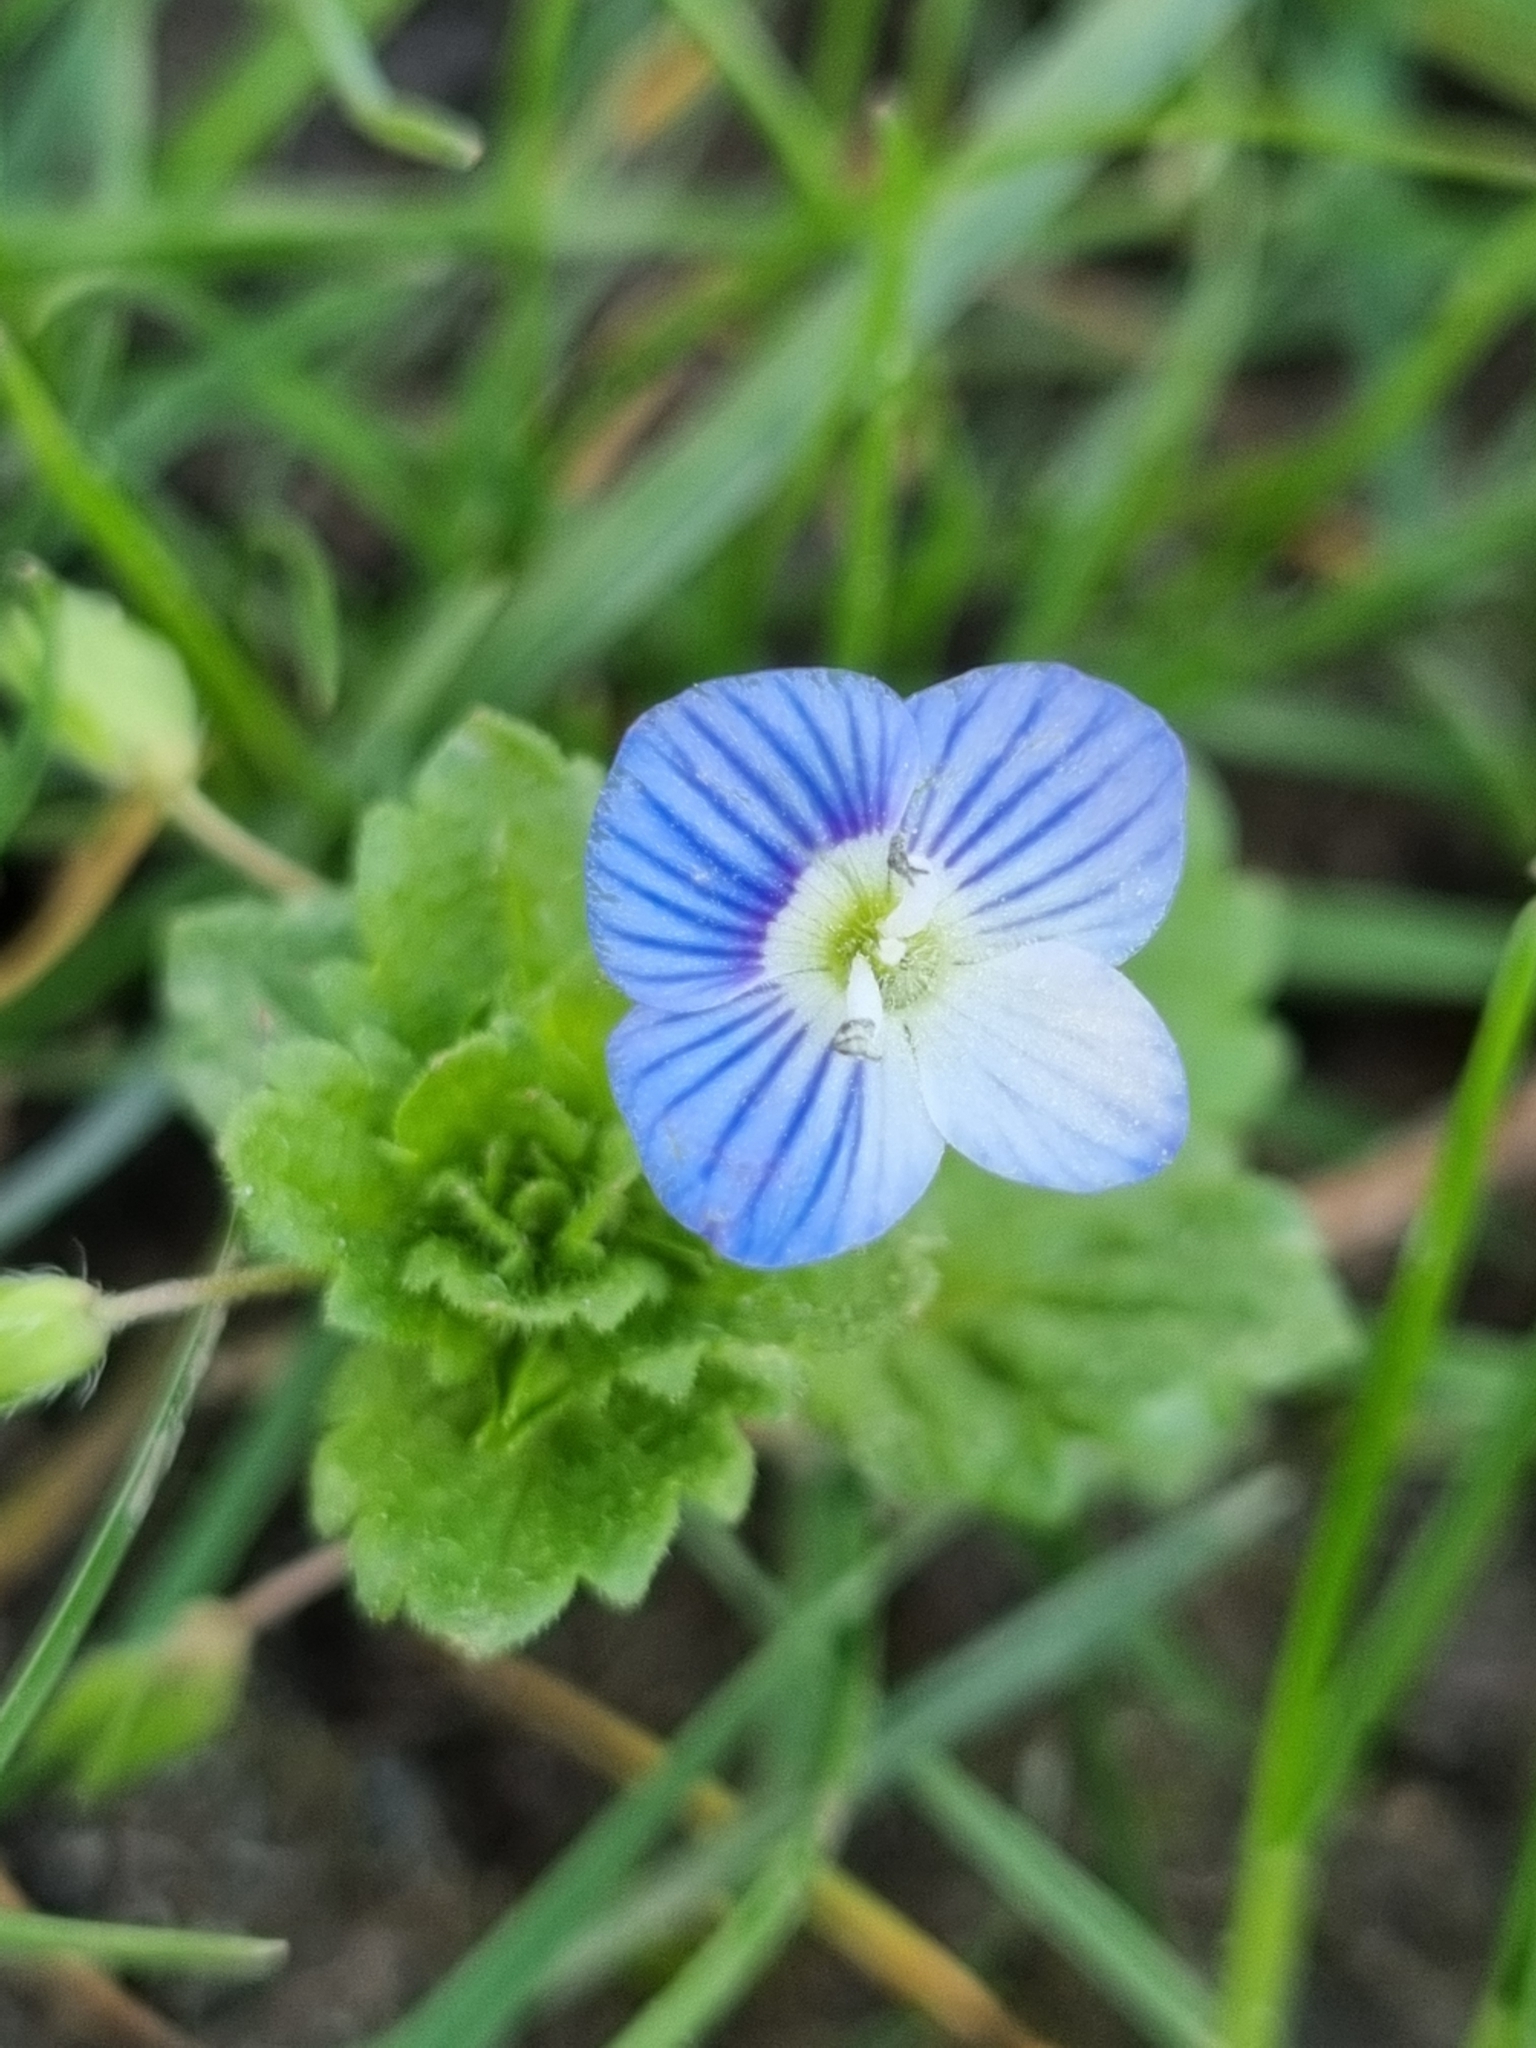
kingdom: Plantae
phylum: Tracheophyta
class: Magnoliopsida
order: Lamiales
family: Plantaginaceae
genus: Veronica
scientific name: Veronica persica
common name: Common field-speedwell
